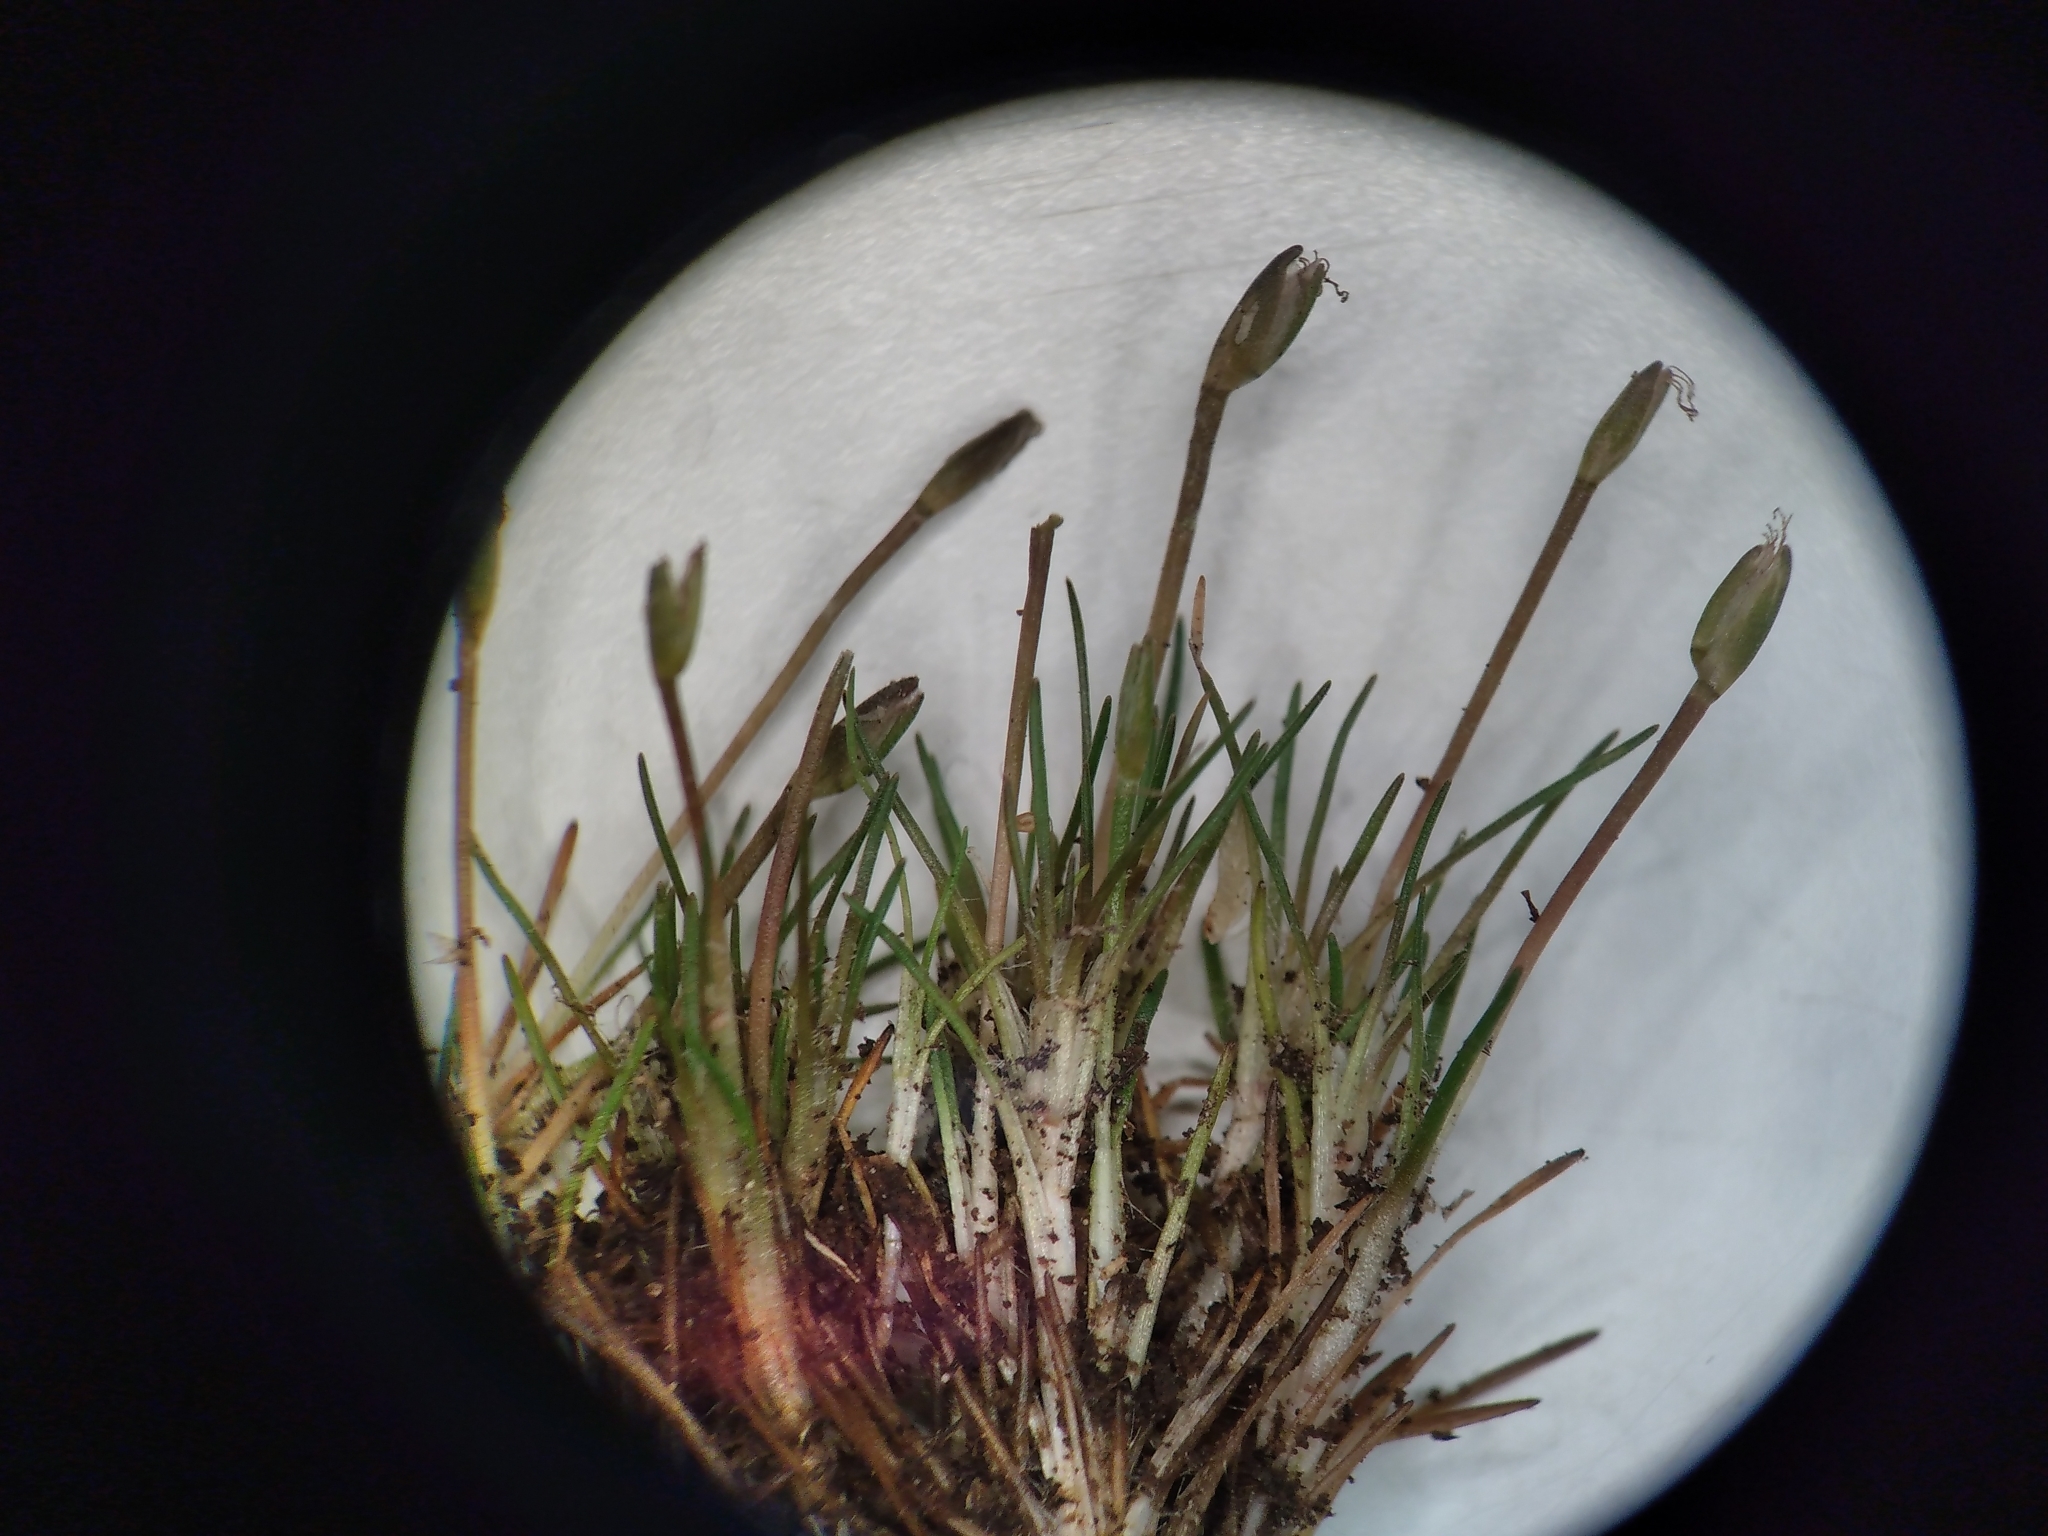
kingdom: Plantae
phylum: Tracheophyta
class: Liliopsida
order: Poales
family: Restionaceae
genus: Centrolepis
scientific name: Centrolepis ciliata
